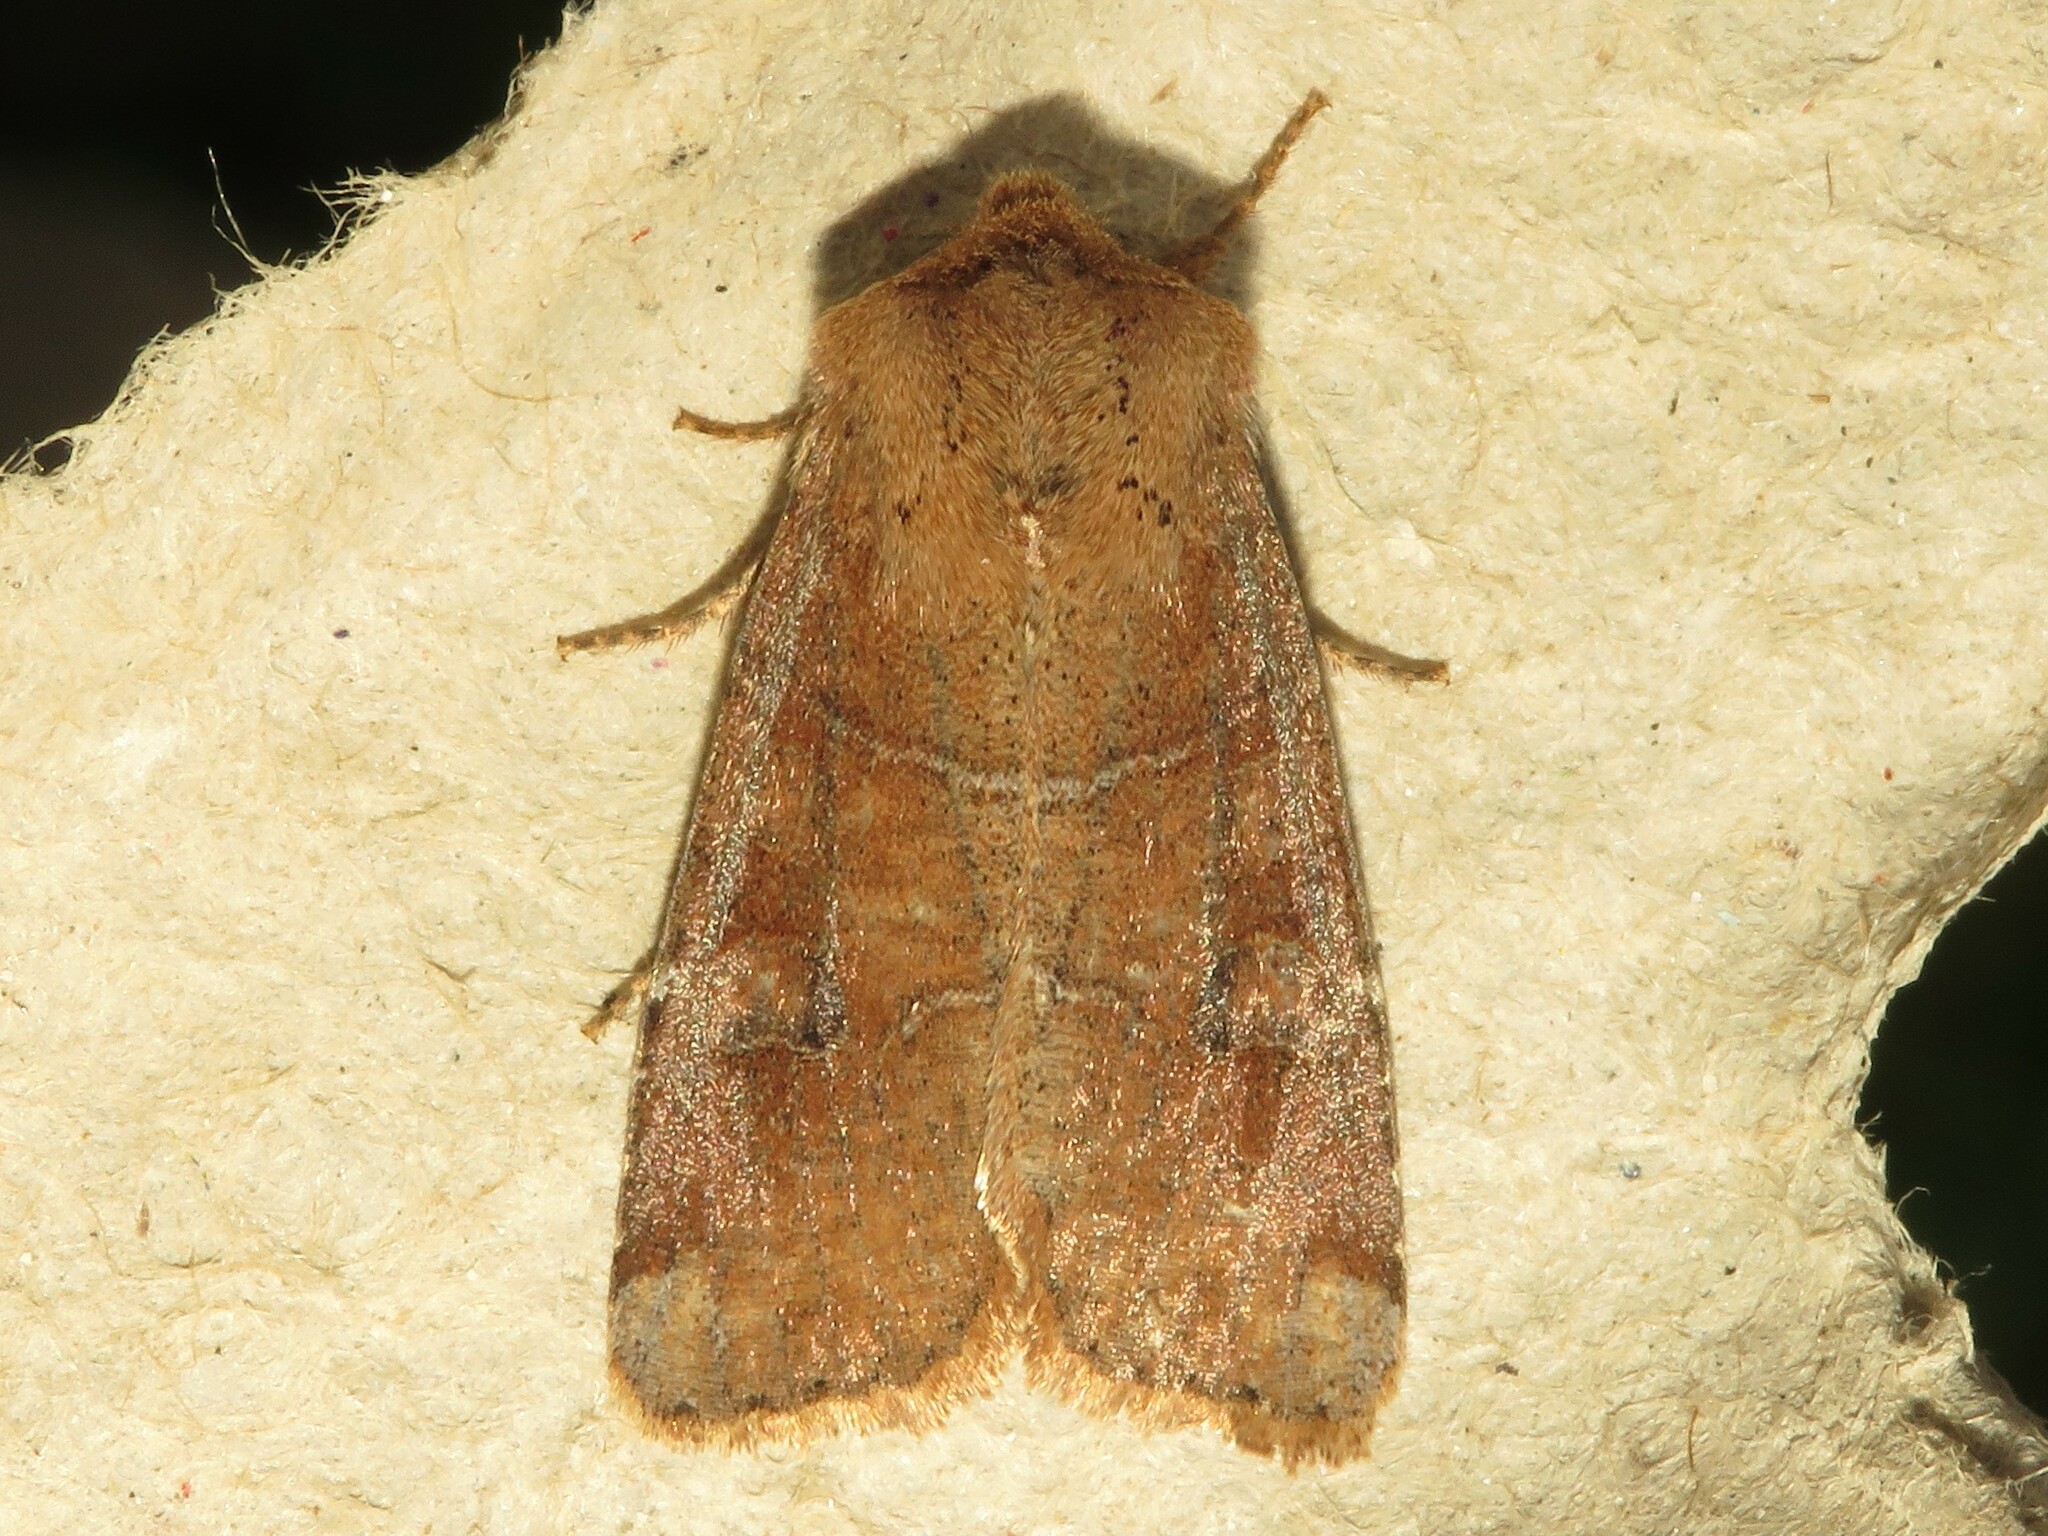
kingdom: Animalia
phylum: Arthropoda
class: Insecta
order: Lepidoptera
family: Noctuidae
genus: Crocigrapha
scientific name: Crocigrapha normani
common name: Norman's quaker
